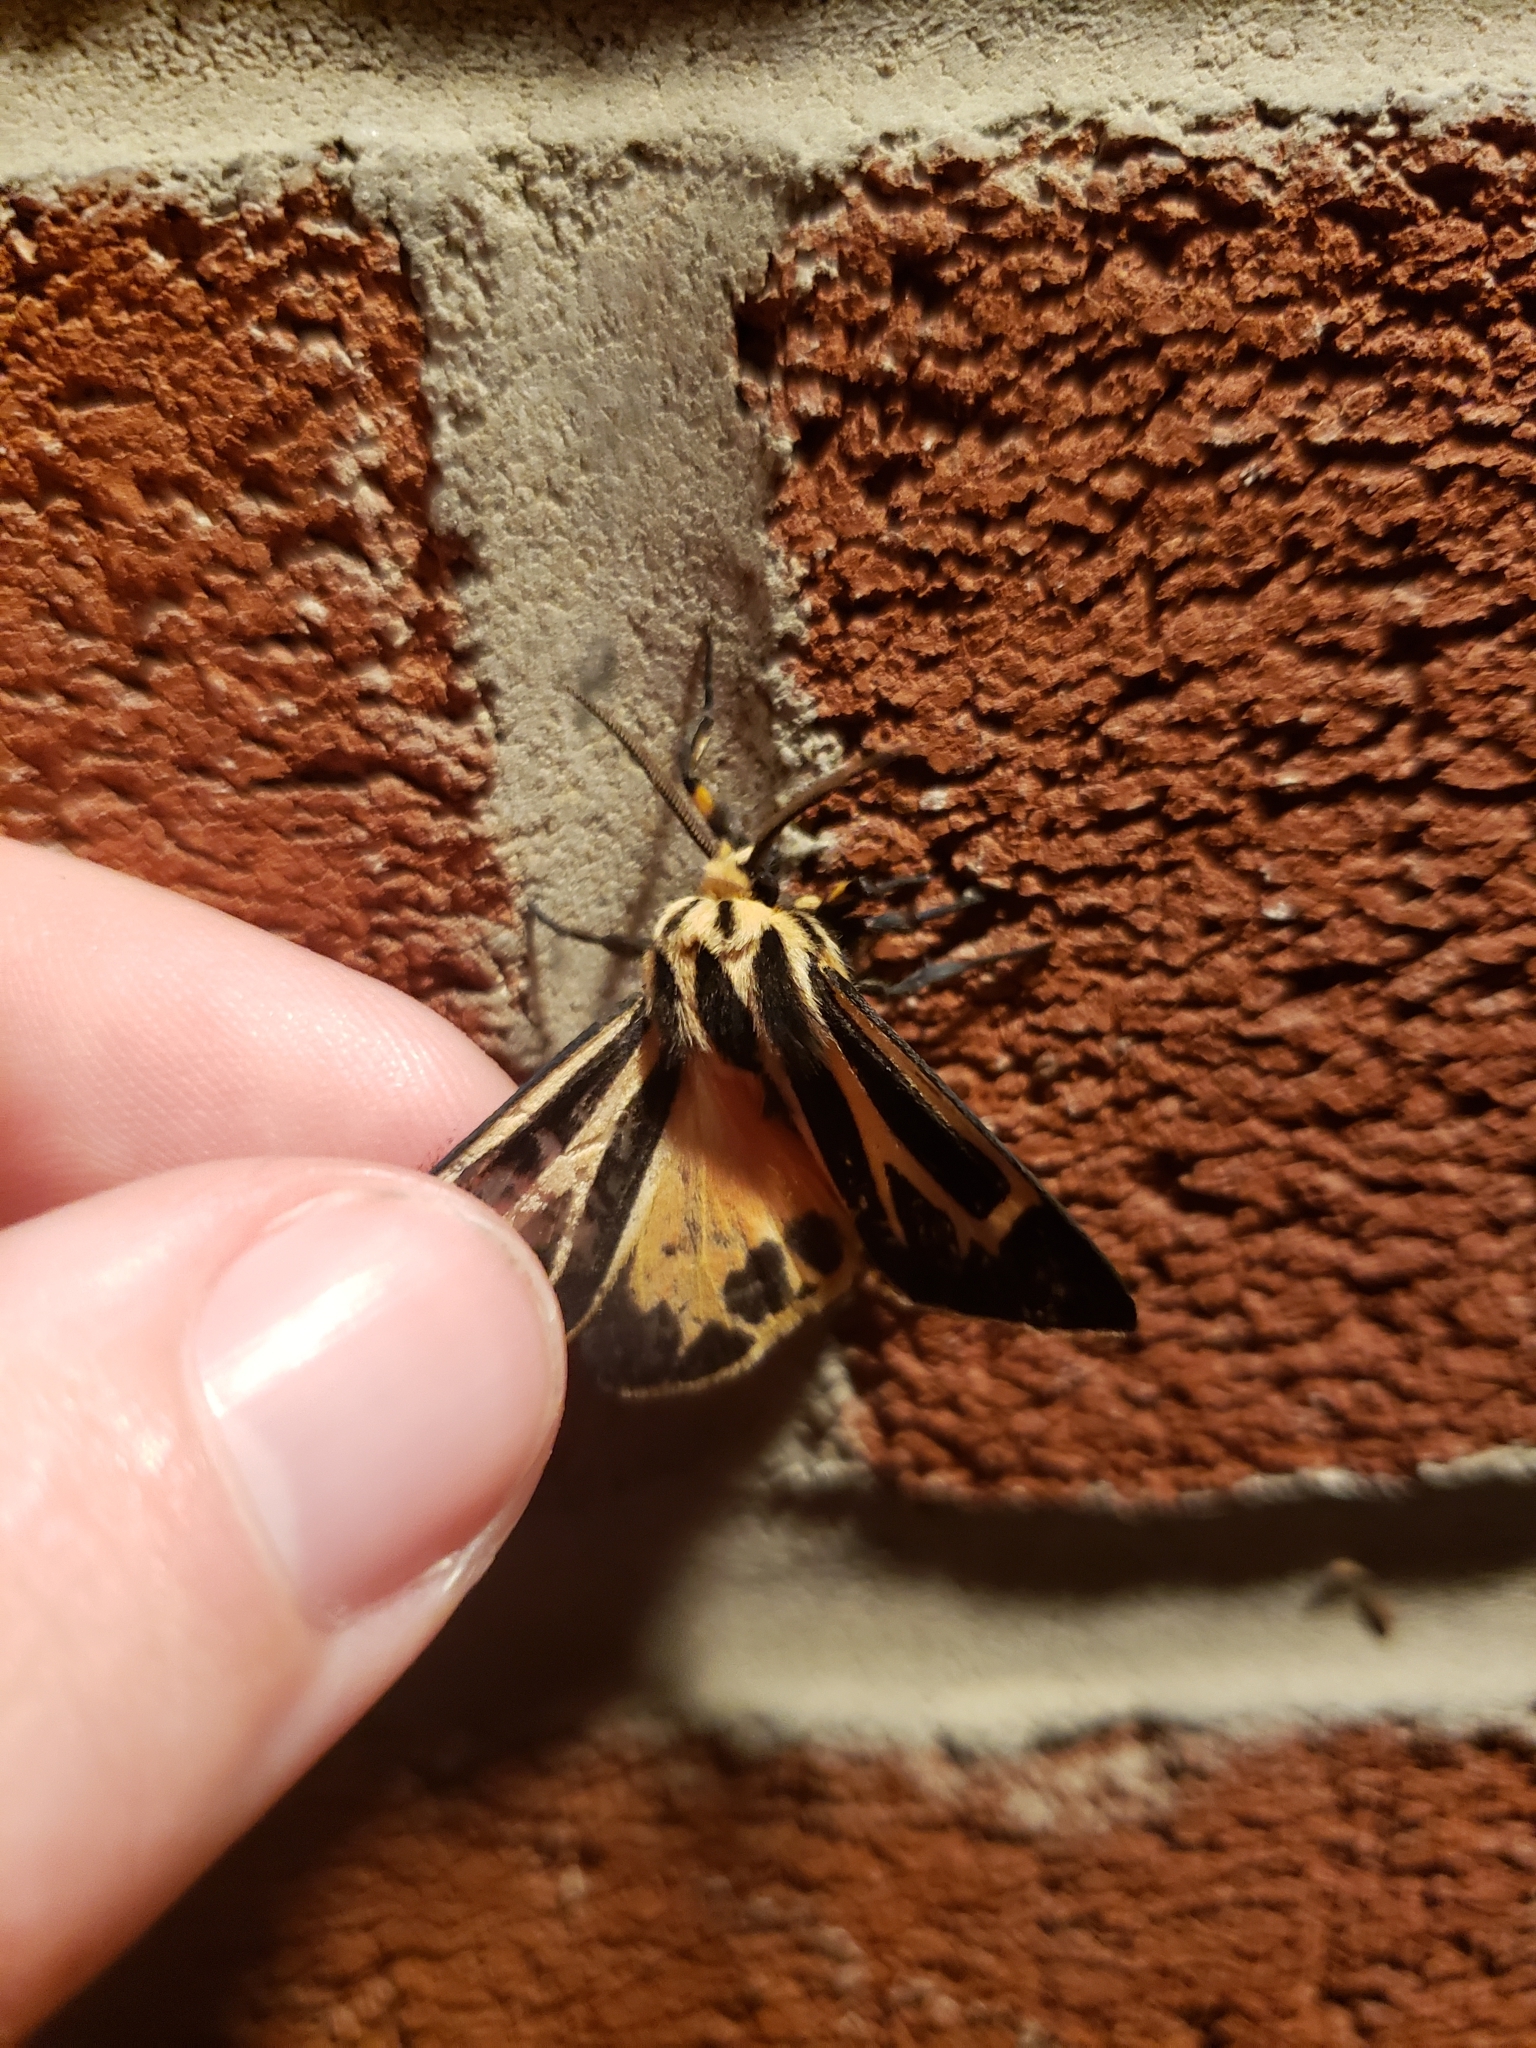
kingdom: Animalia
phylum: Arthropoda
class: Insecta
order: Lepidoptera
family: Erebidae
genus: Apantesis
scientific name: Apantesis phalerata
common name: Harnessed tiger moth
